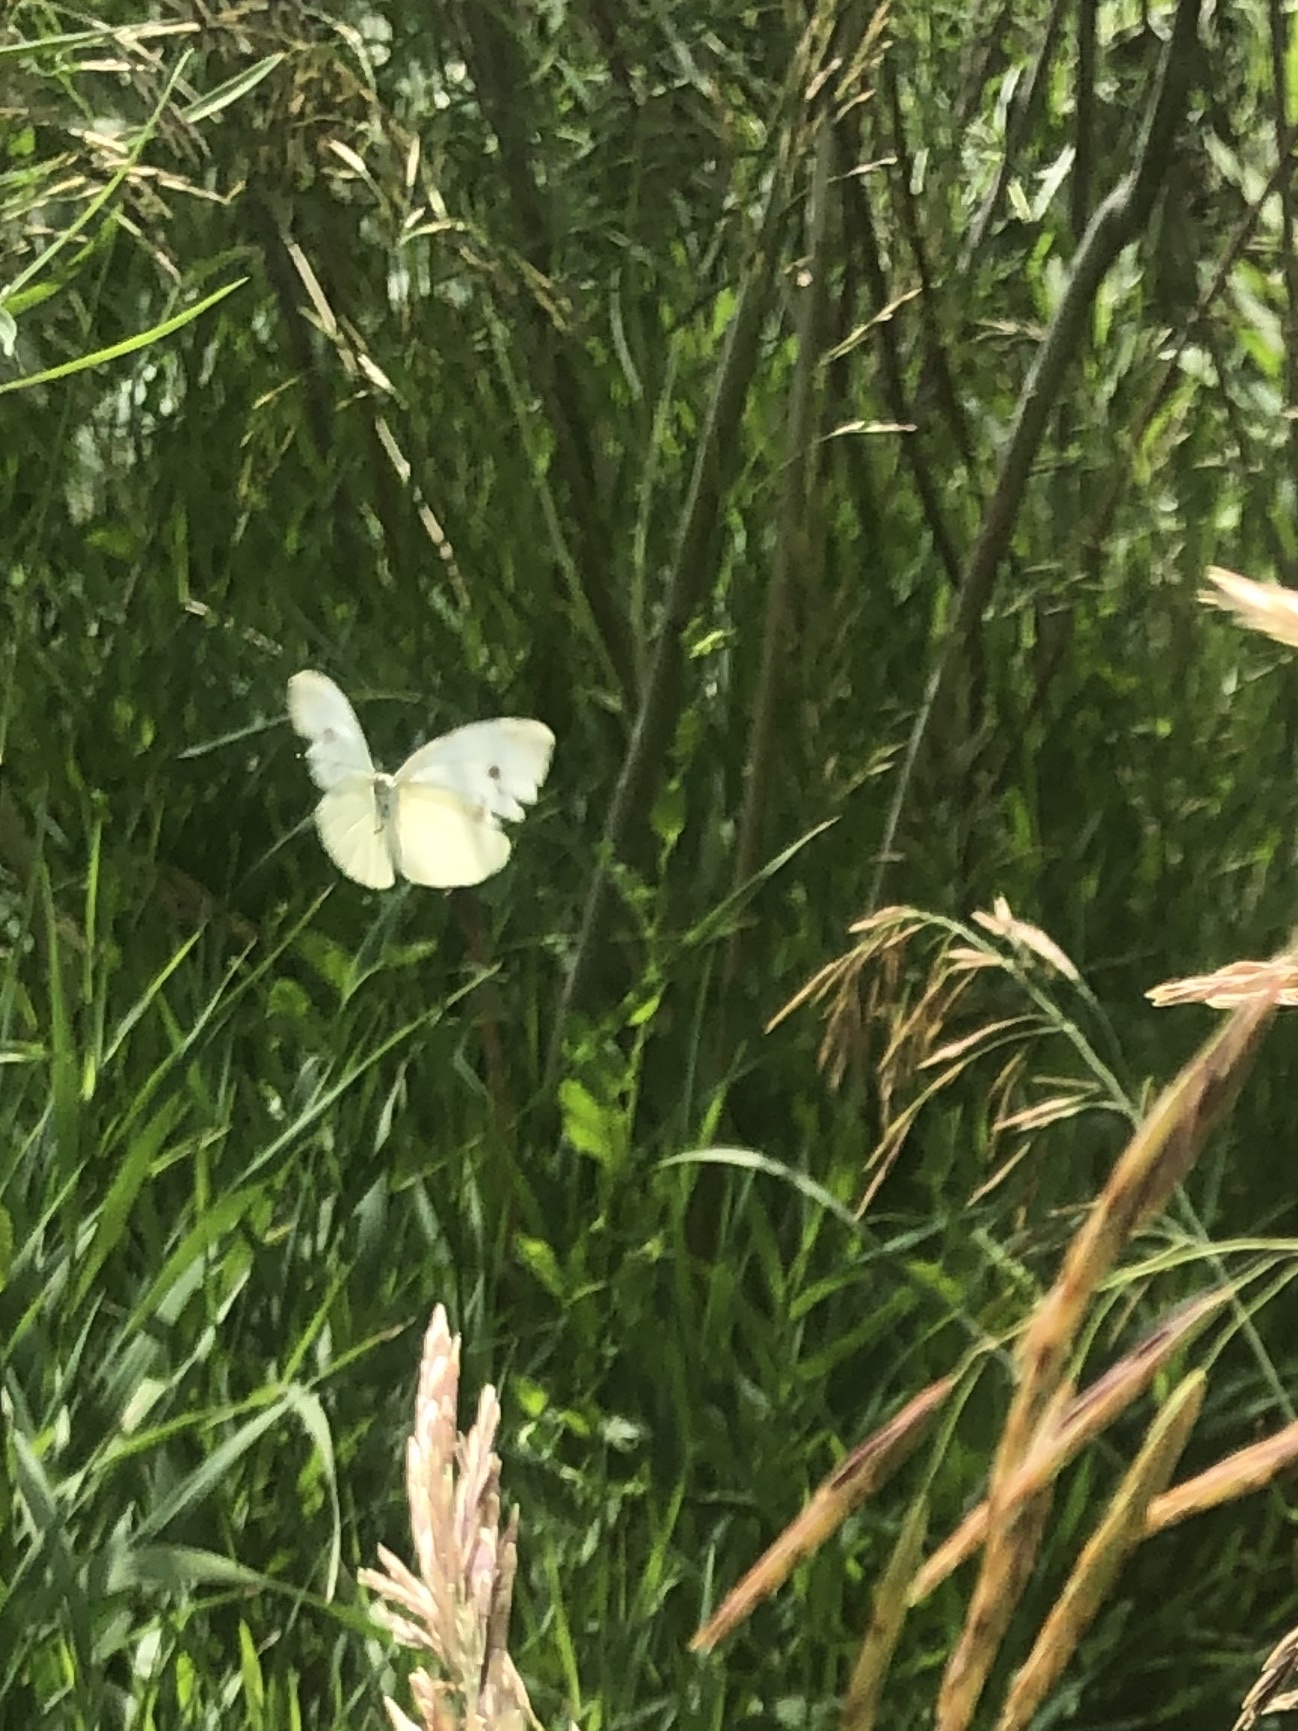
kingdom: Animalia
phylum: Arthropoda
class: Insecta
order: Lepidoptera
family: Pieridae
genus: Pieris
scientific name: Pieris rapae
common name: Small white
